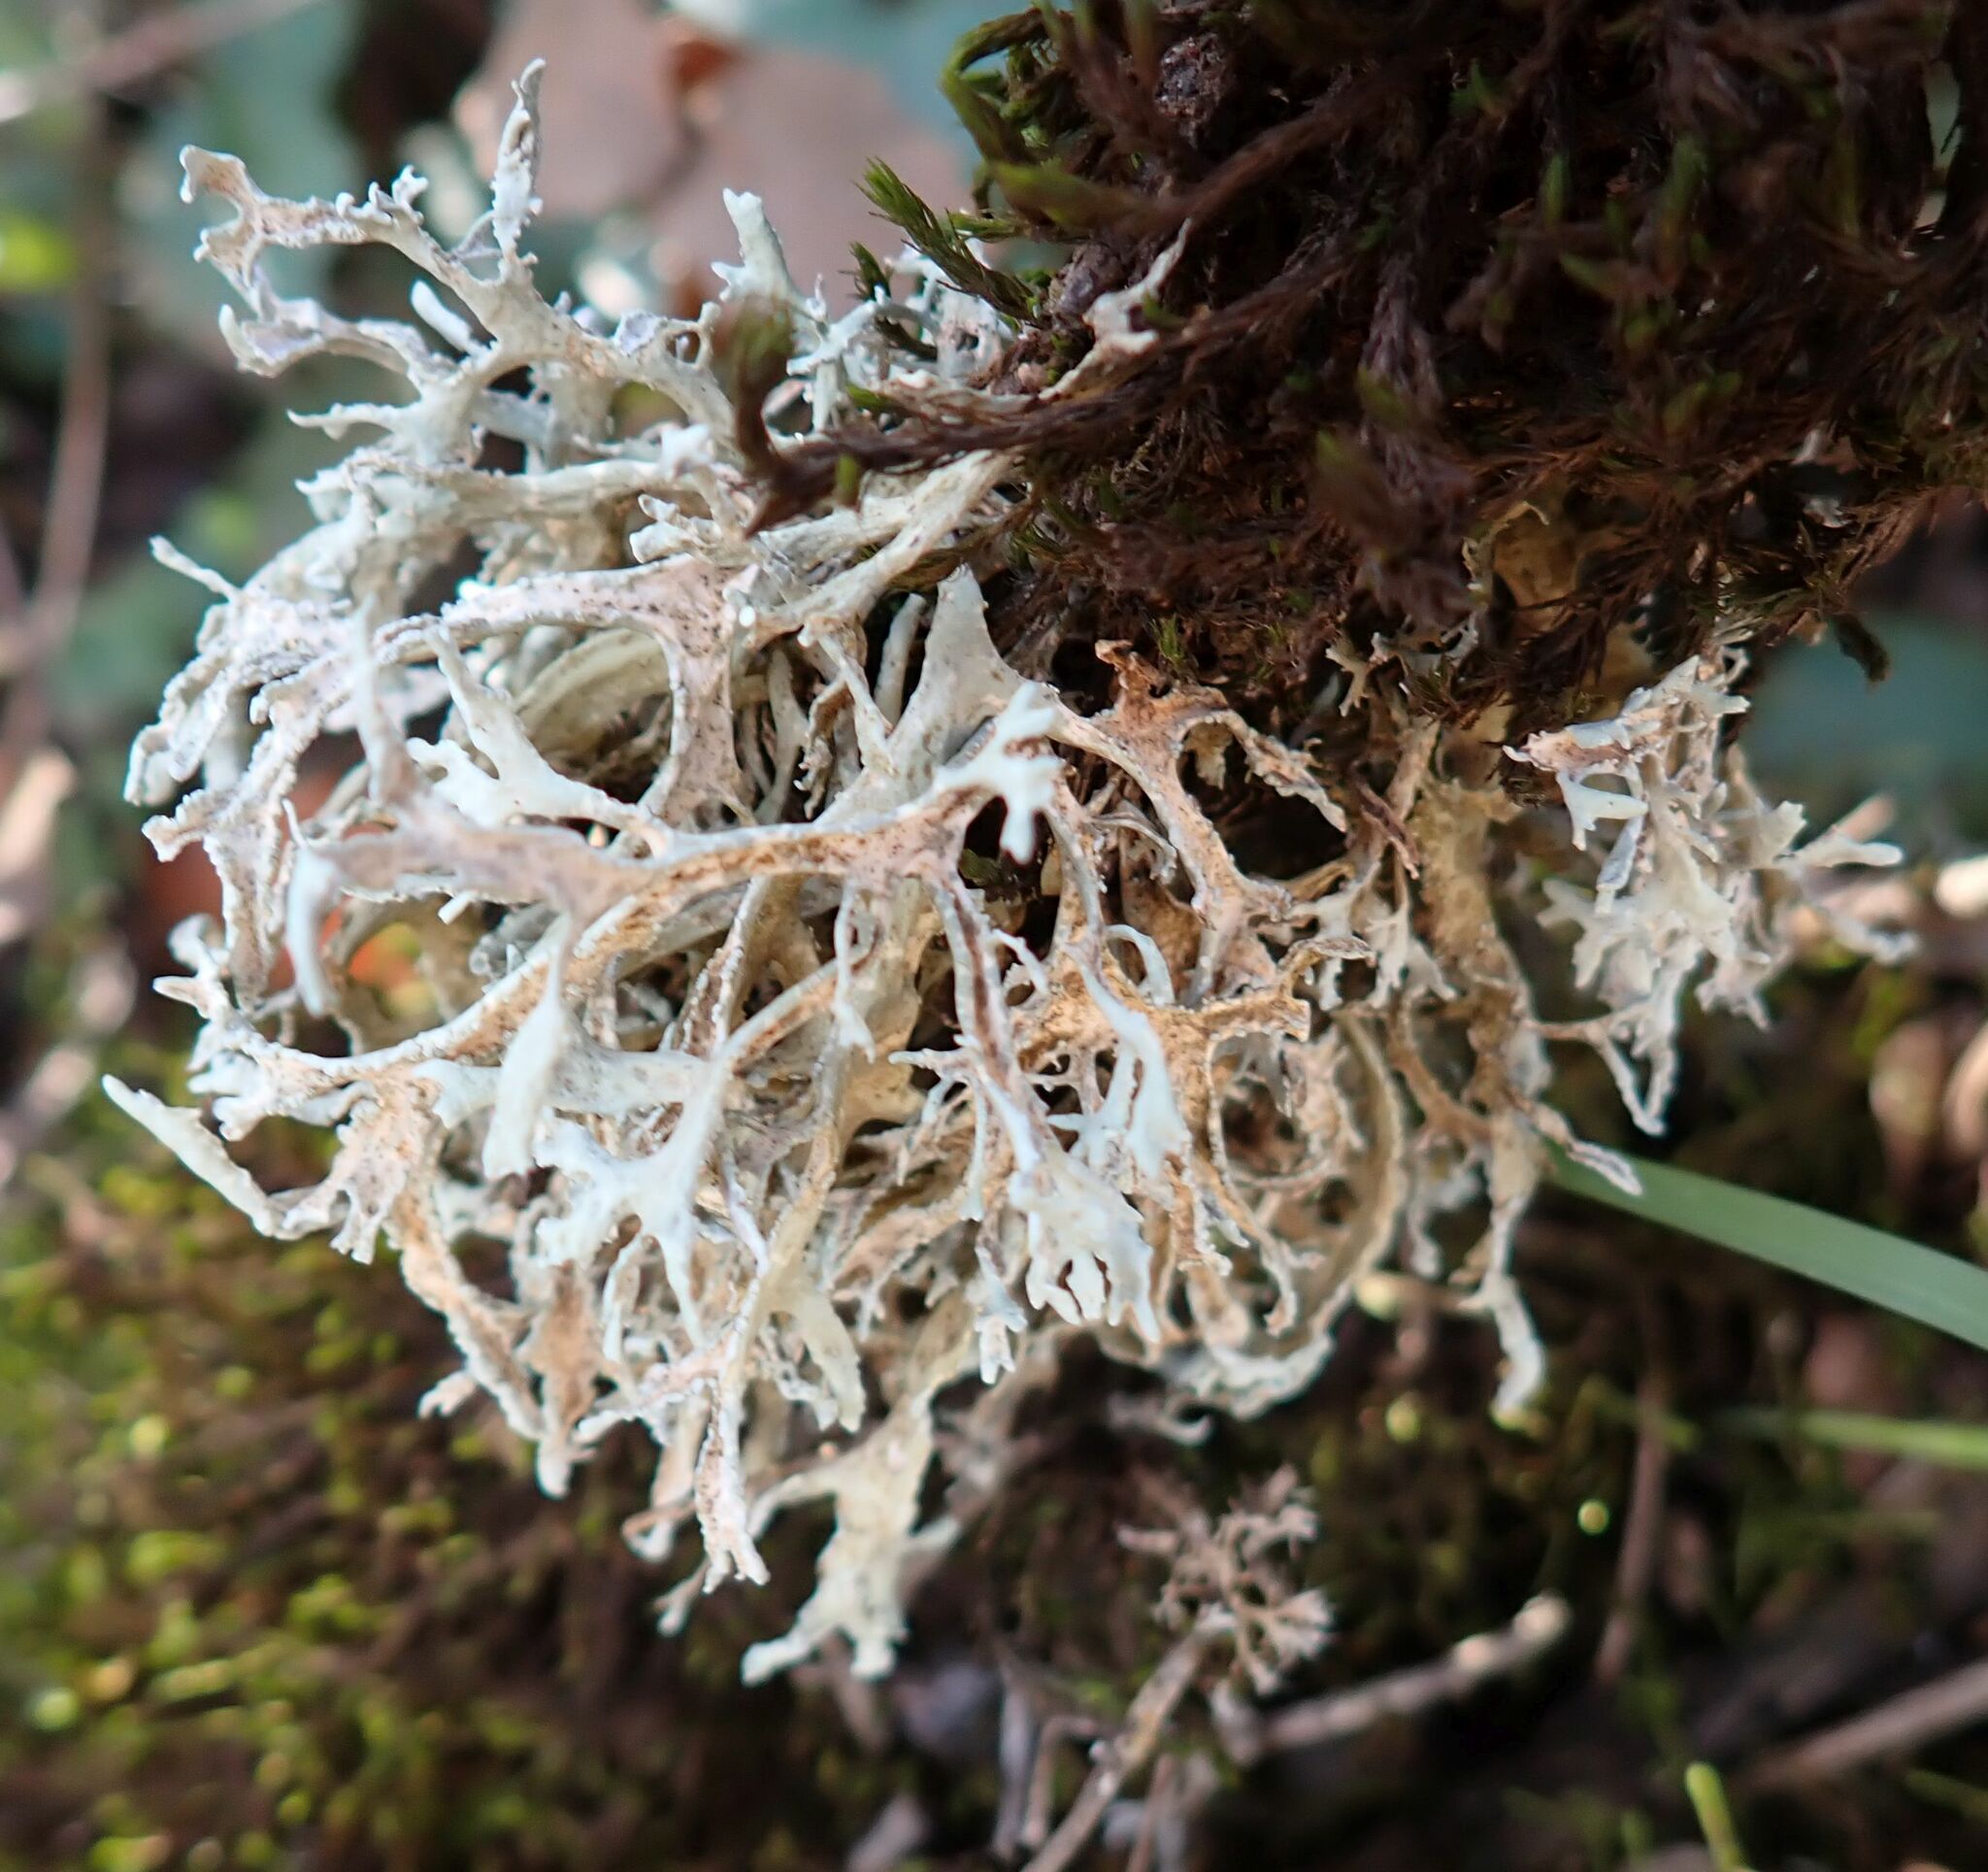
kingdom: Fungi
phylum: Ascomycota
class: Lecanoromycetes
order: Lecanorales
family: Parmeliaceae
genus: Evernia
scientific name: Evernia prunastri
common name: Oak moss
